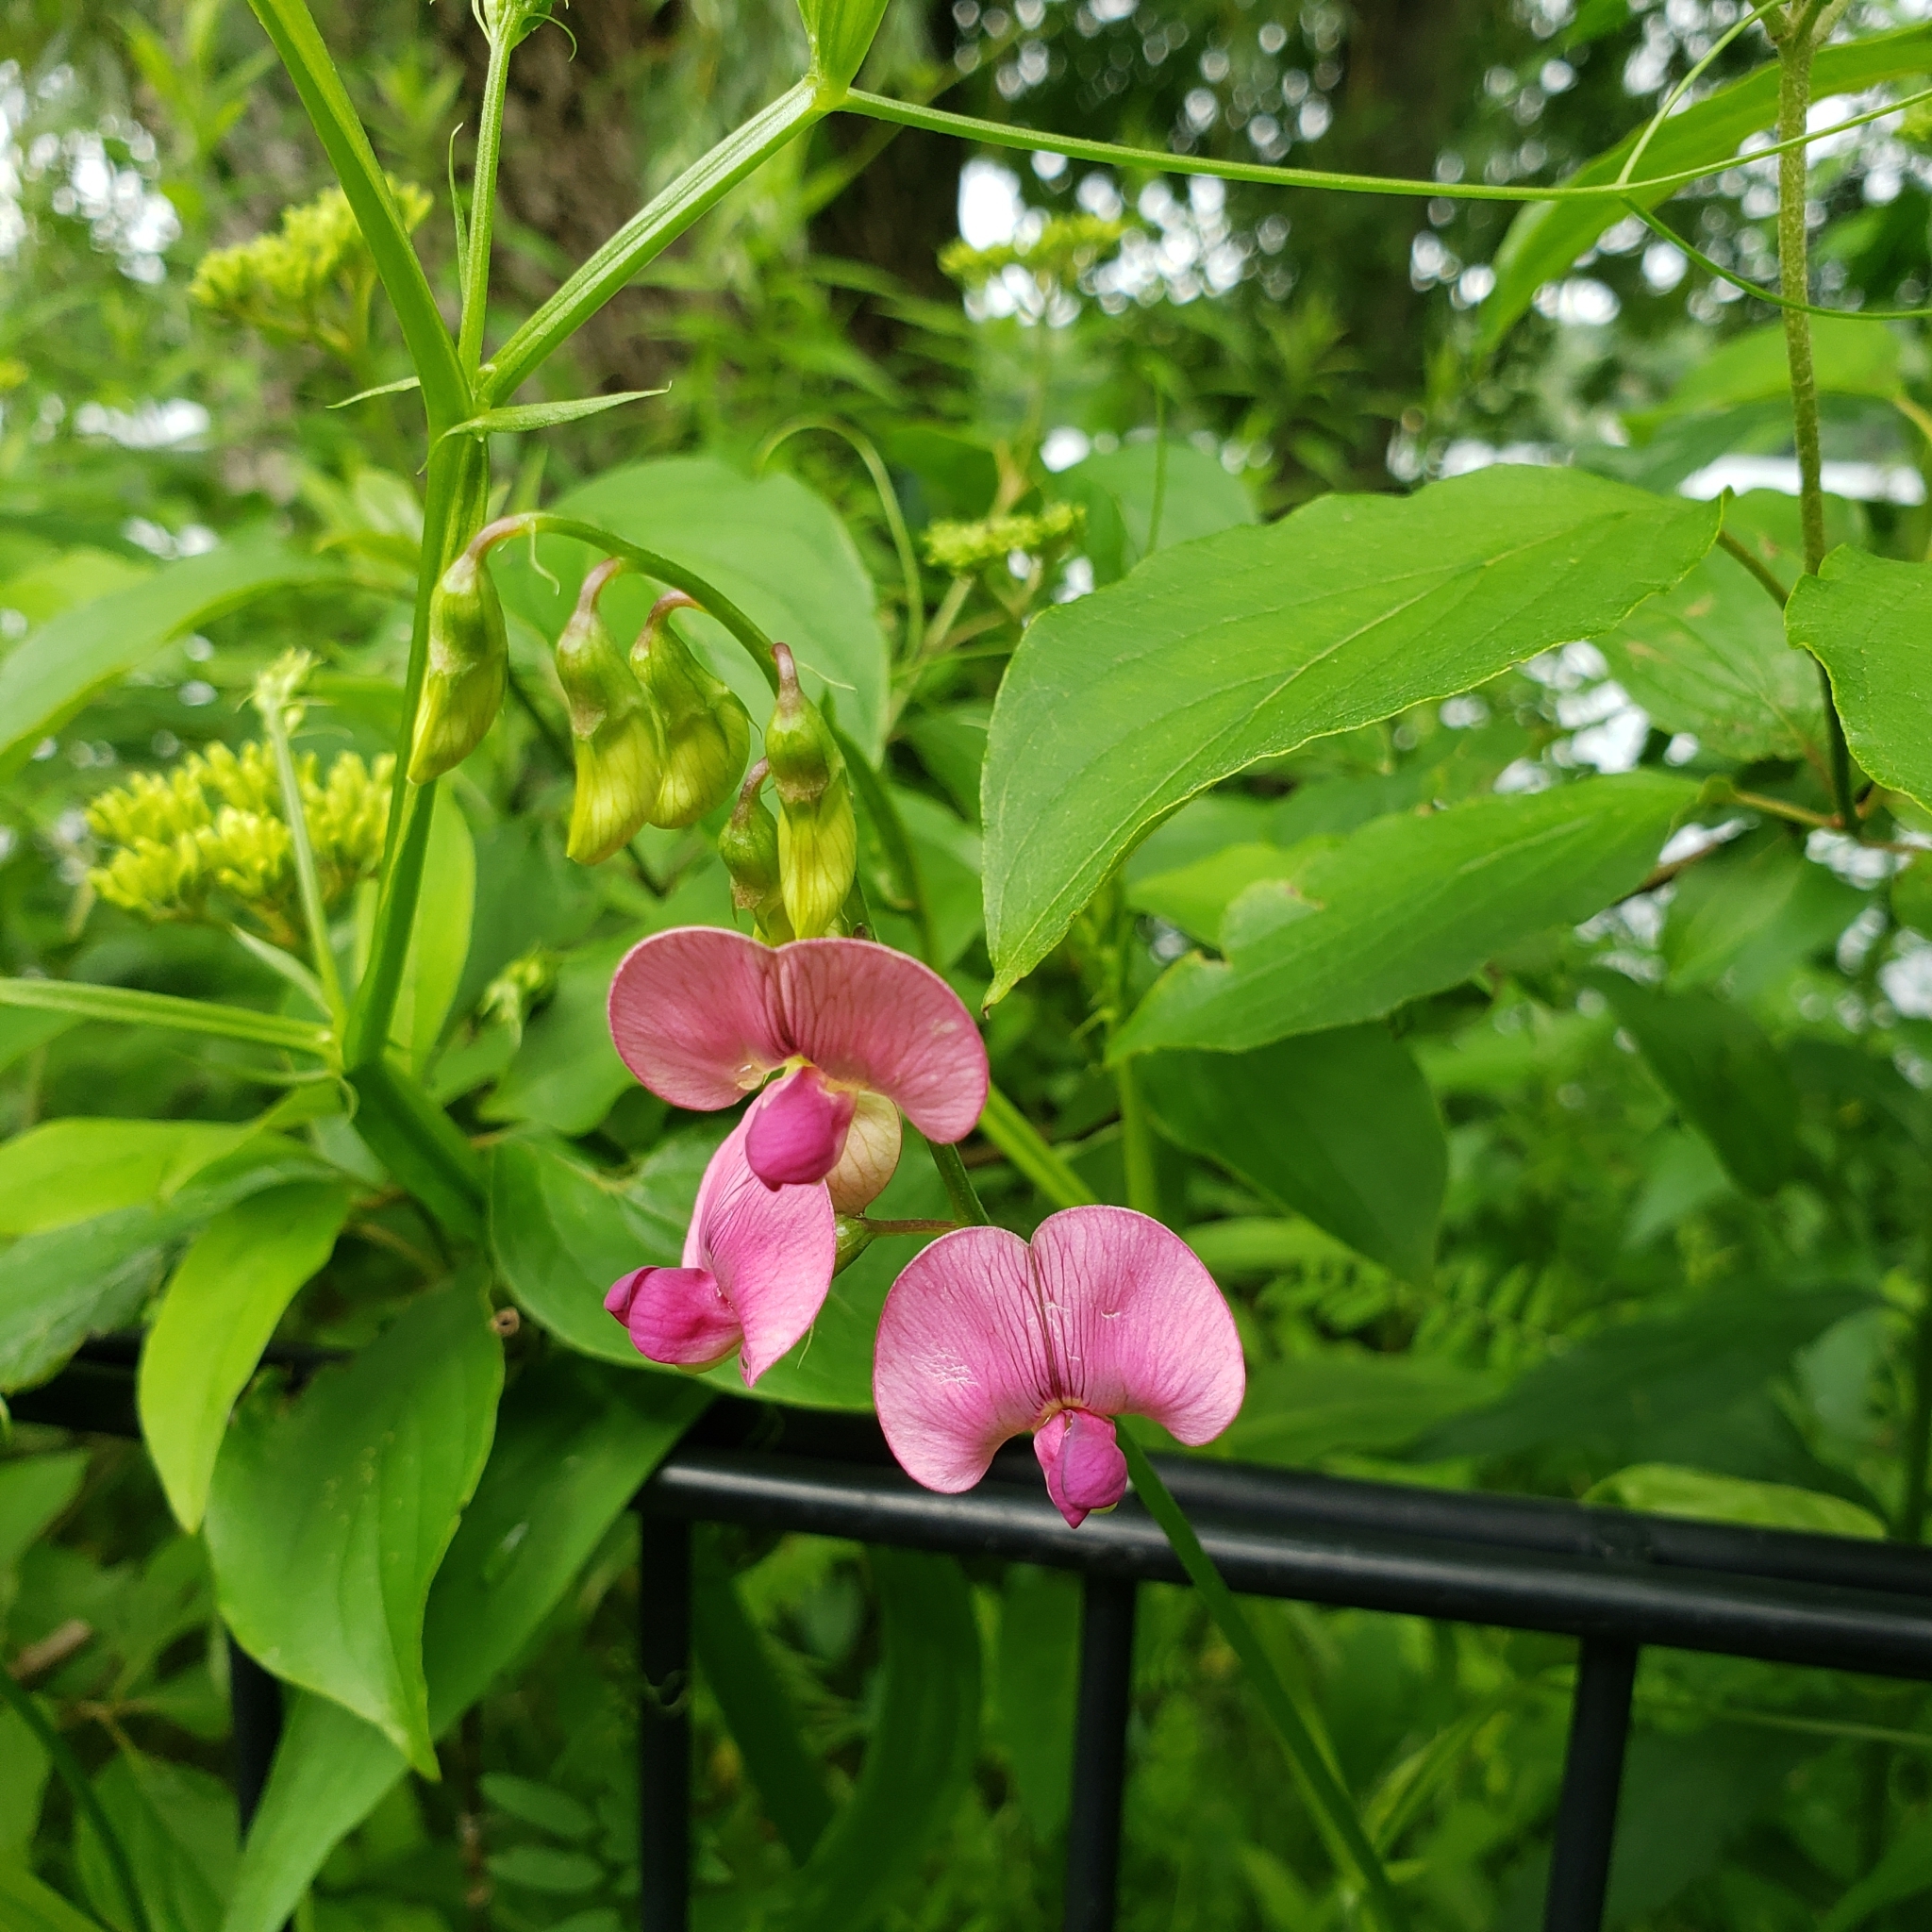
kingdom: Plantae
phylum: Tracheophyta
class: Magnoliopsida
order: Fabales
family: Fabaceae
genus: Lathyrus
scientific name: Lathyrus sylvestris
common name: Flat pea
